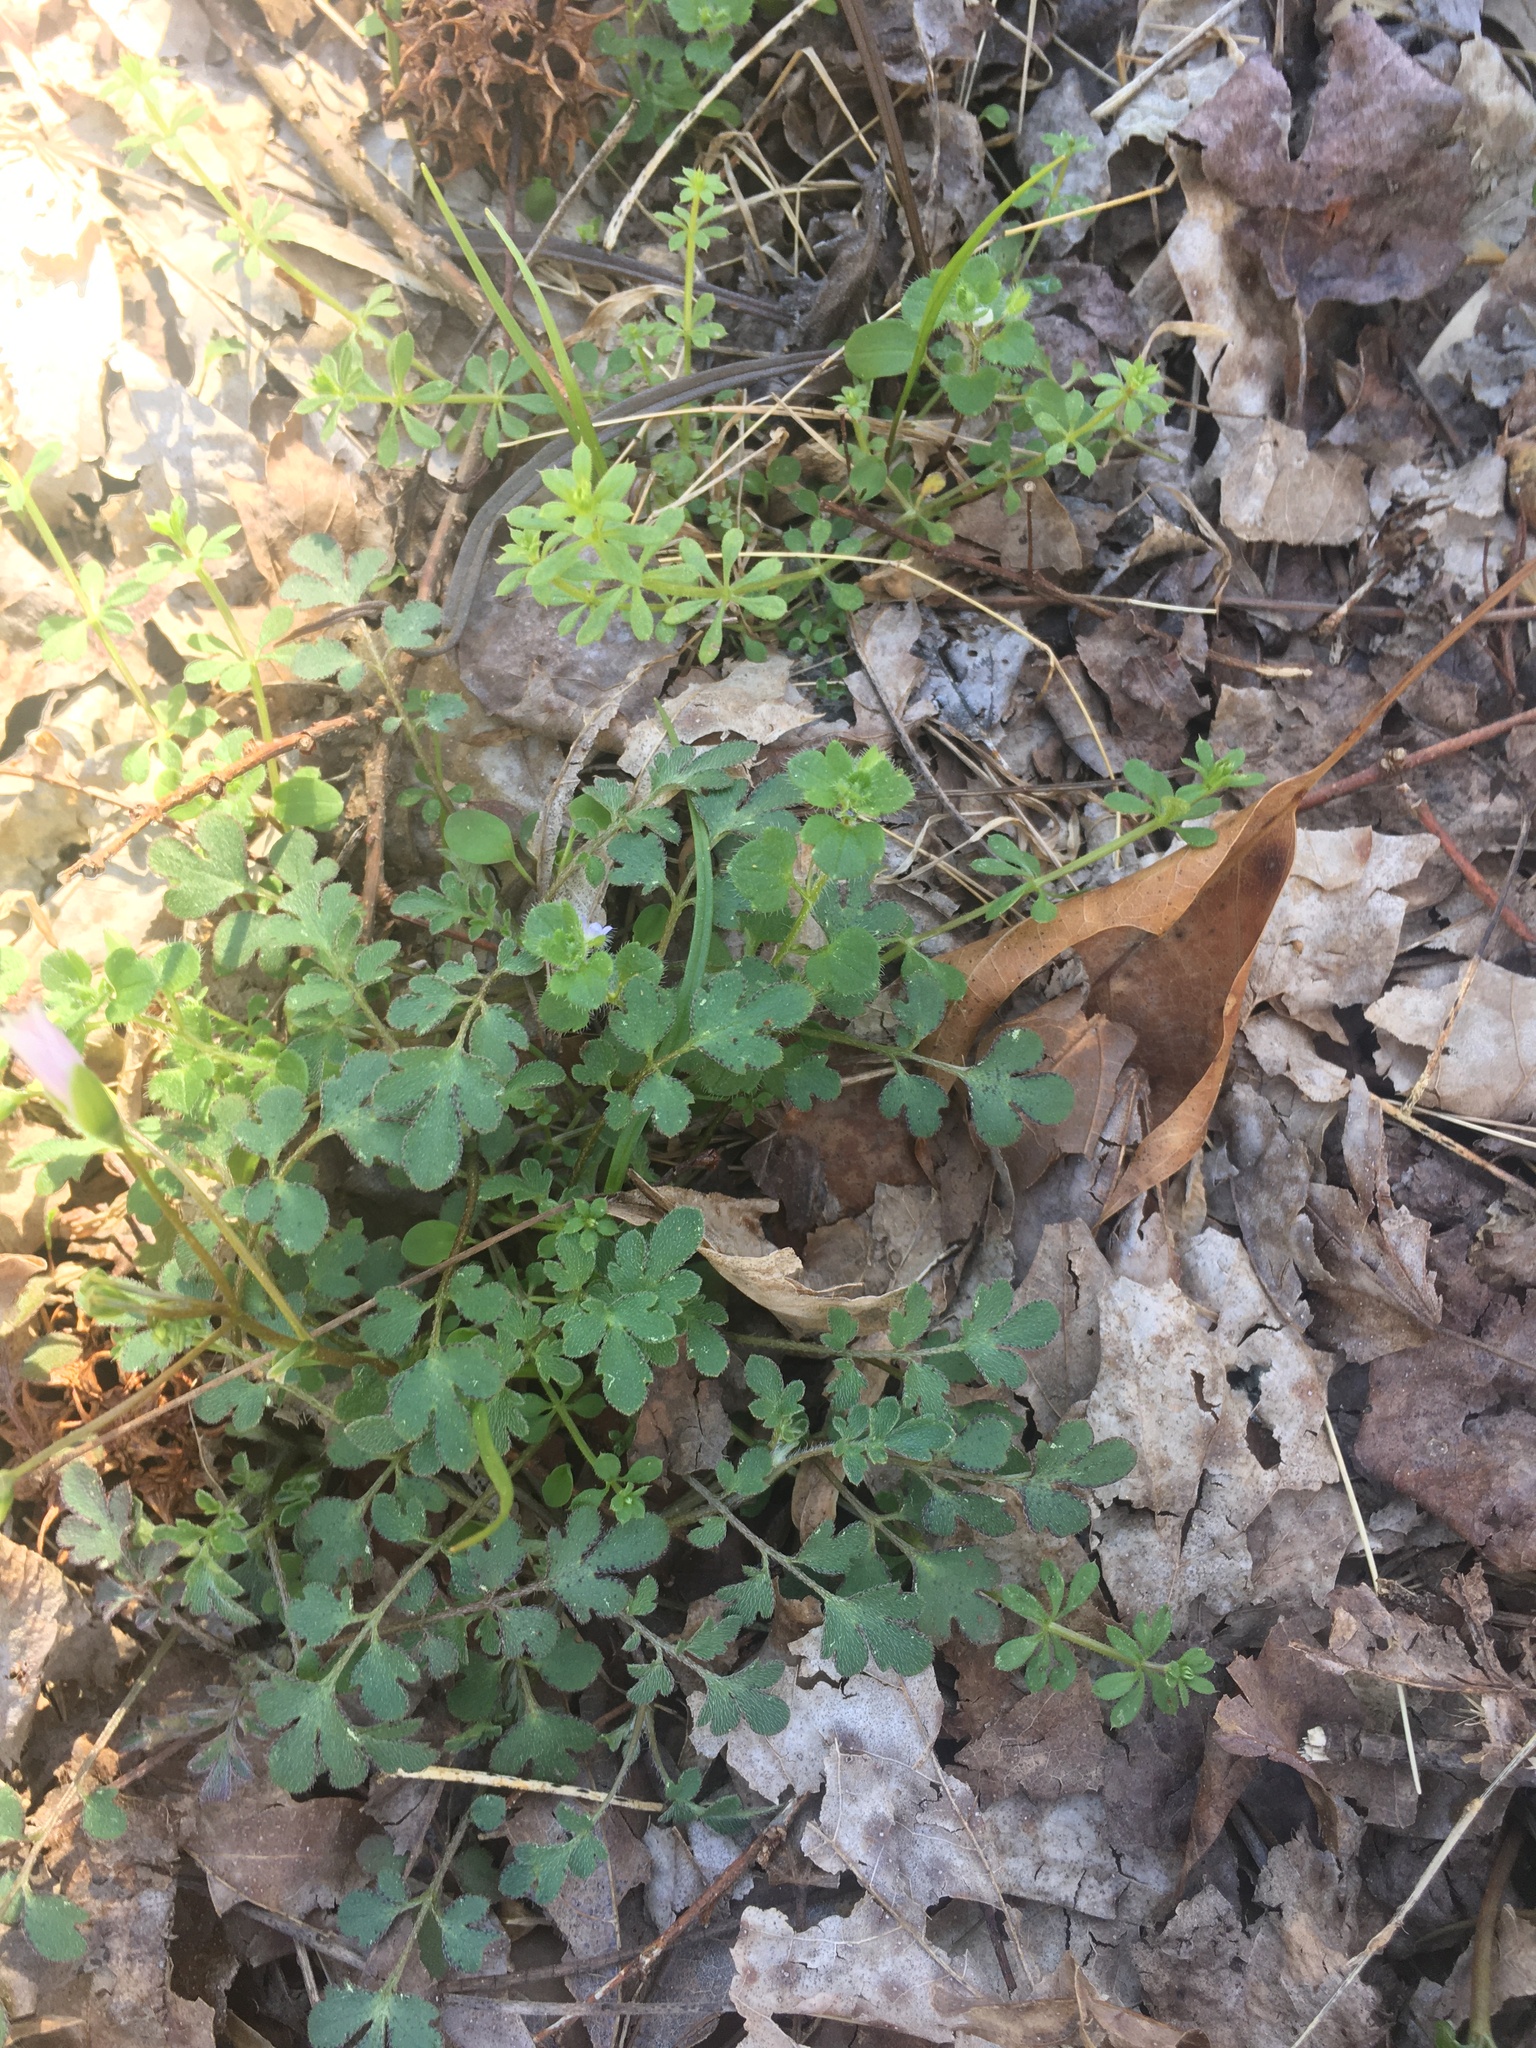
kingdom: Plantae
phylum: Tracheophyta
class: Magnoliopsida
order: Boraginales
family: Hydrophyllaceae
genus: Phacelia
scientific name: Phacelia covillei
